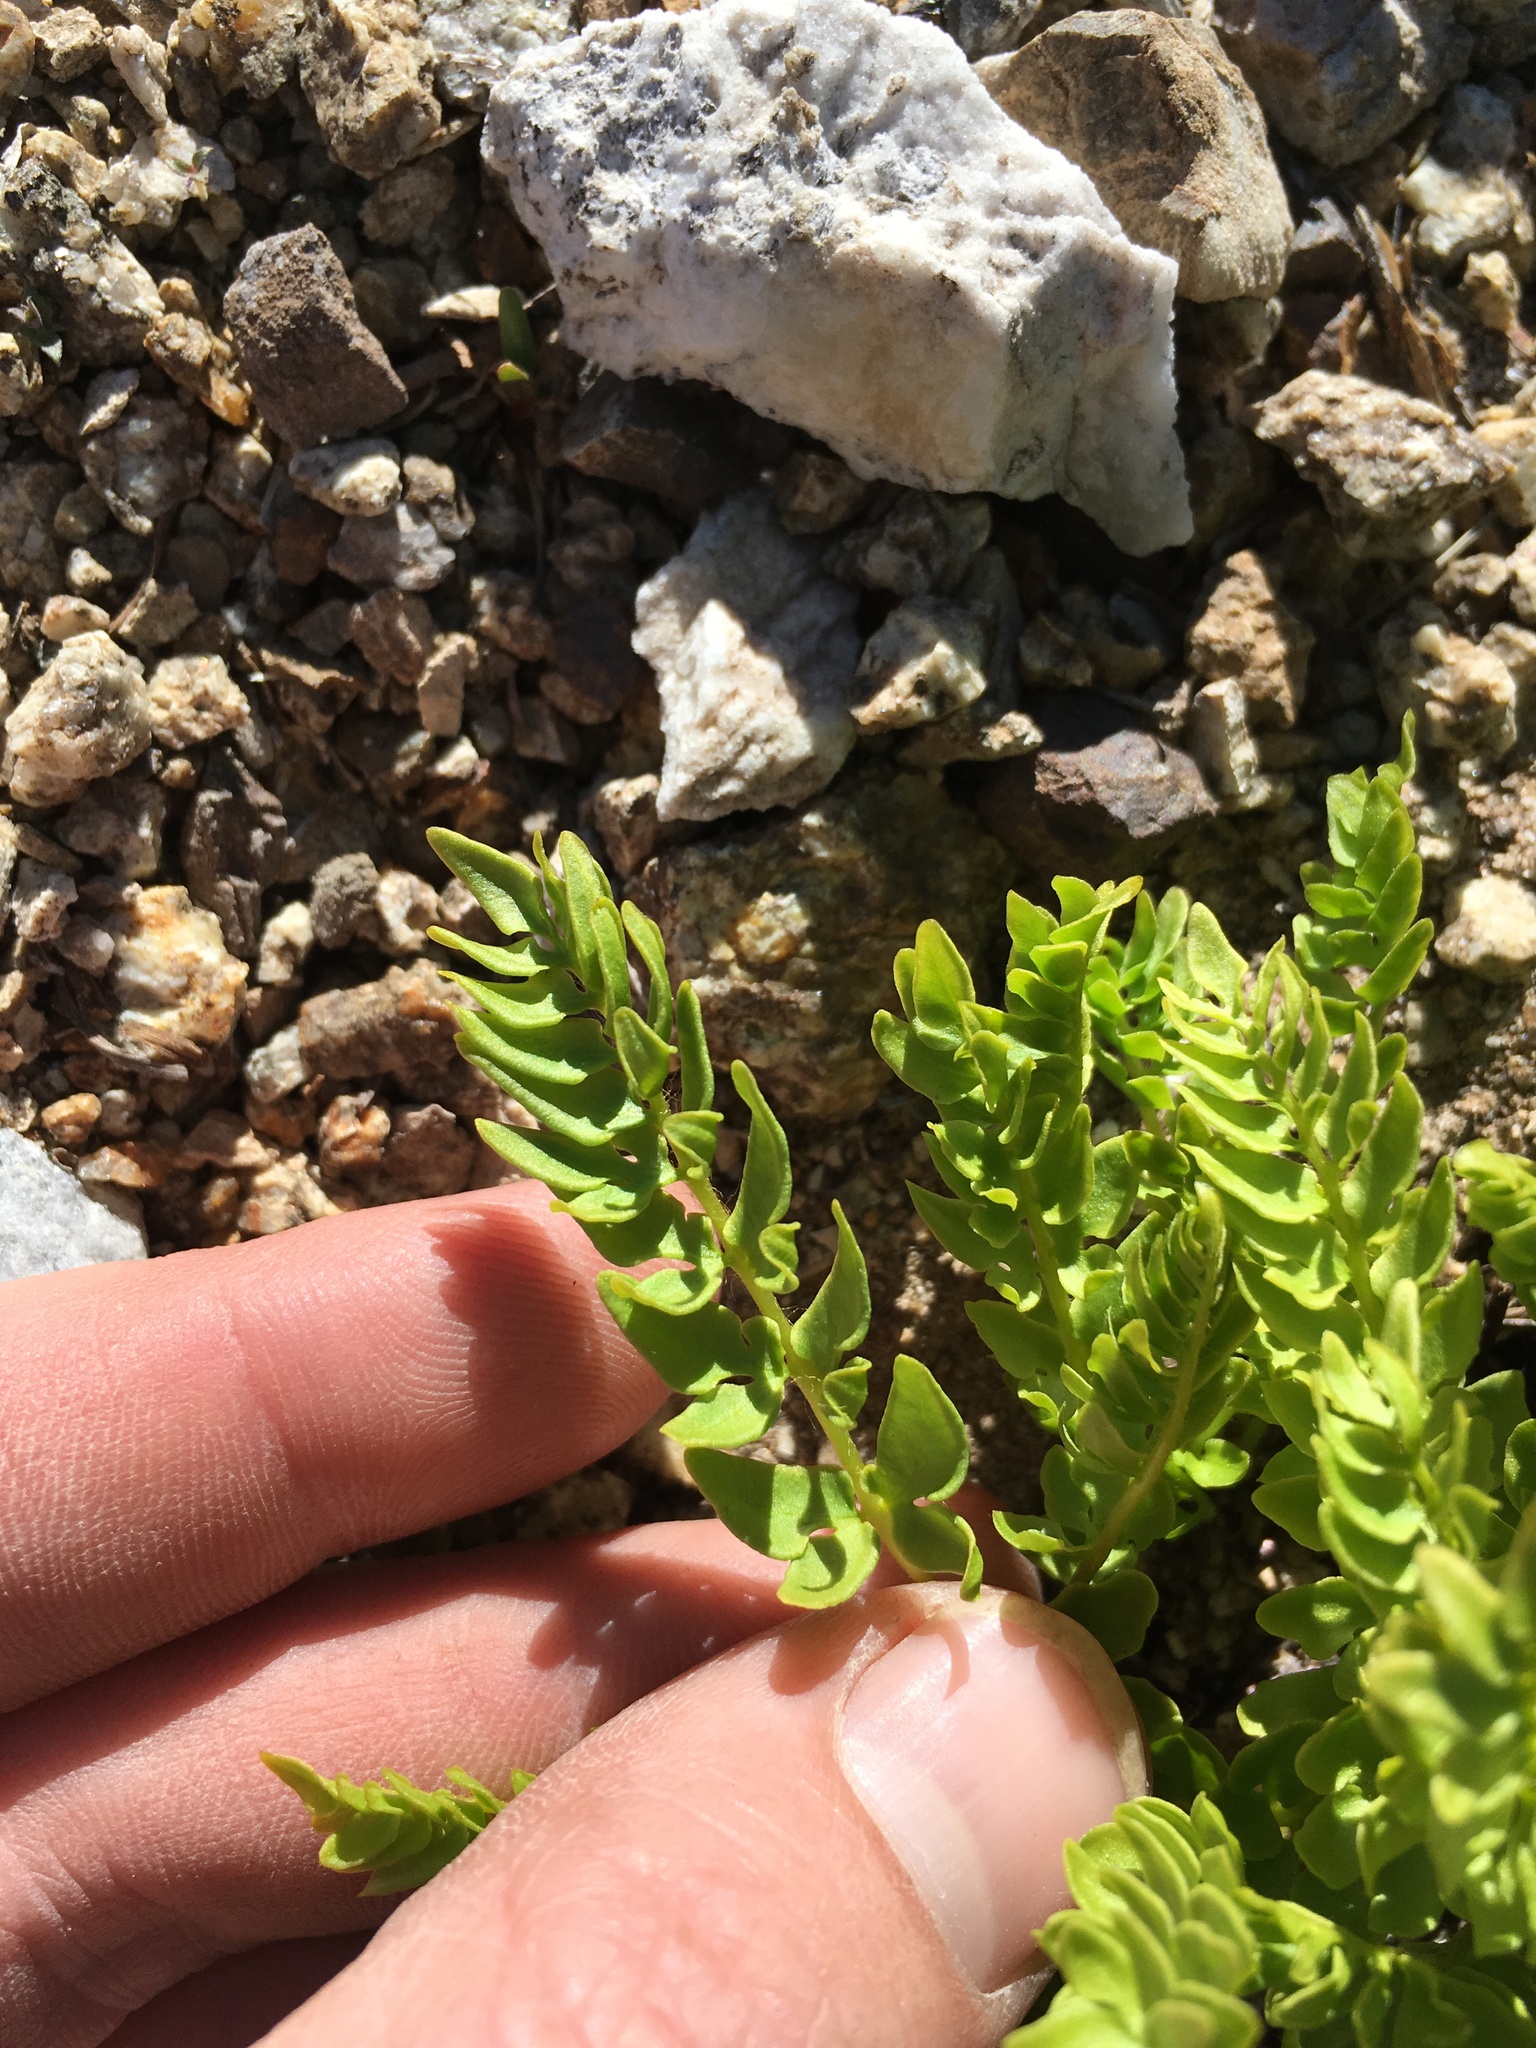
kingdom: Plantae
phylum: Tracheophyta
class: Polypodiopsida
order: Polypodiales
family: Pteridaceae
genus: Pellaea
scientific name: Pellaea breweri
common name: Brewer's cliffbrake
